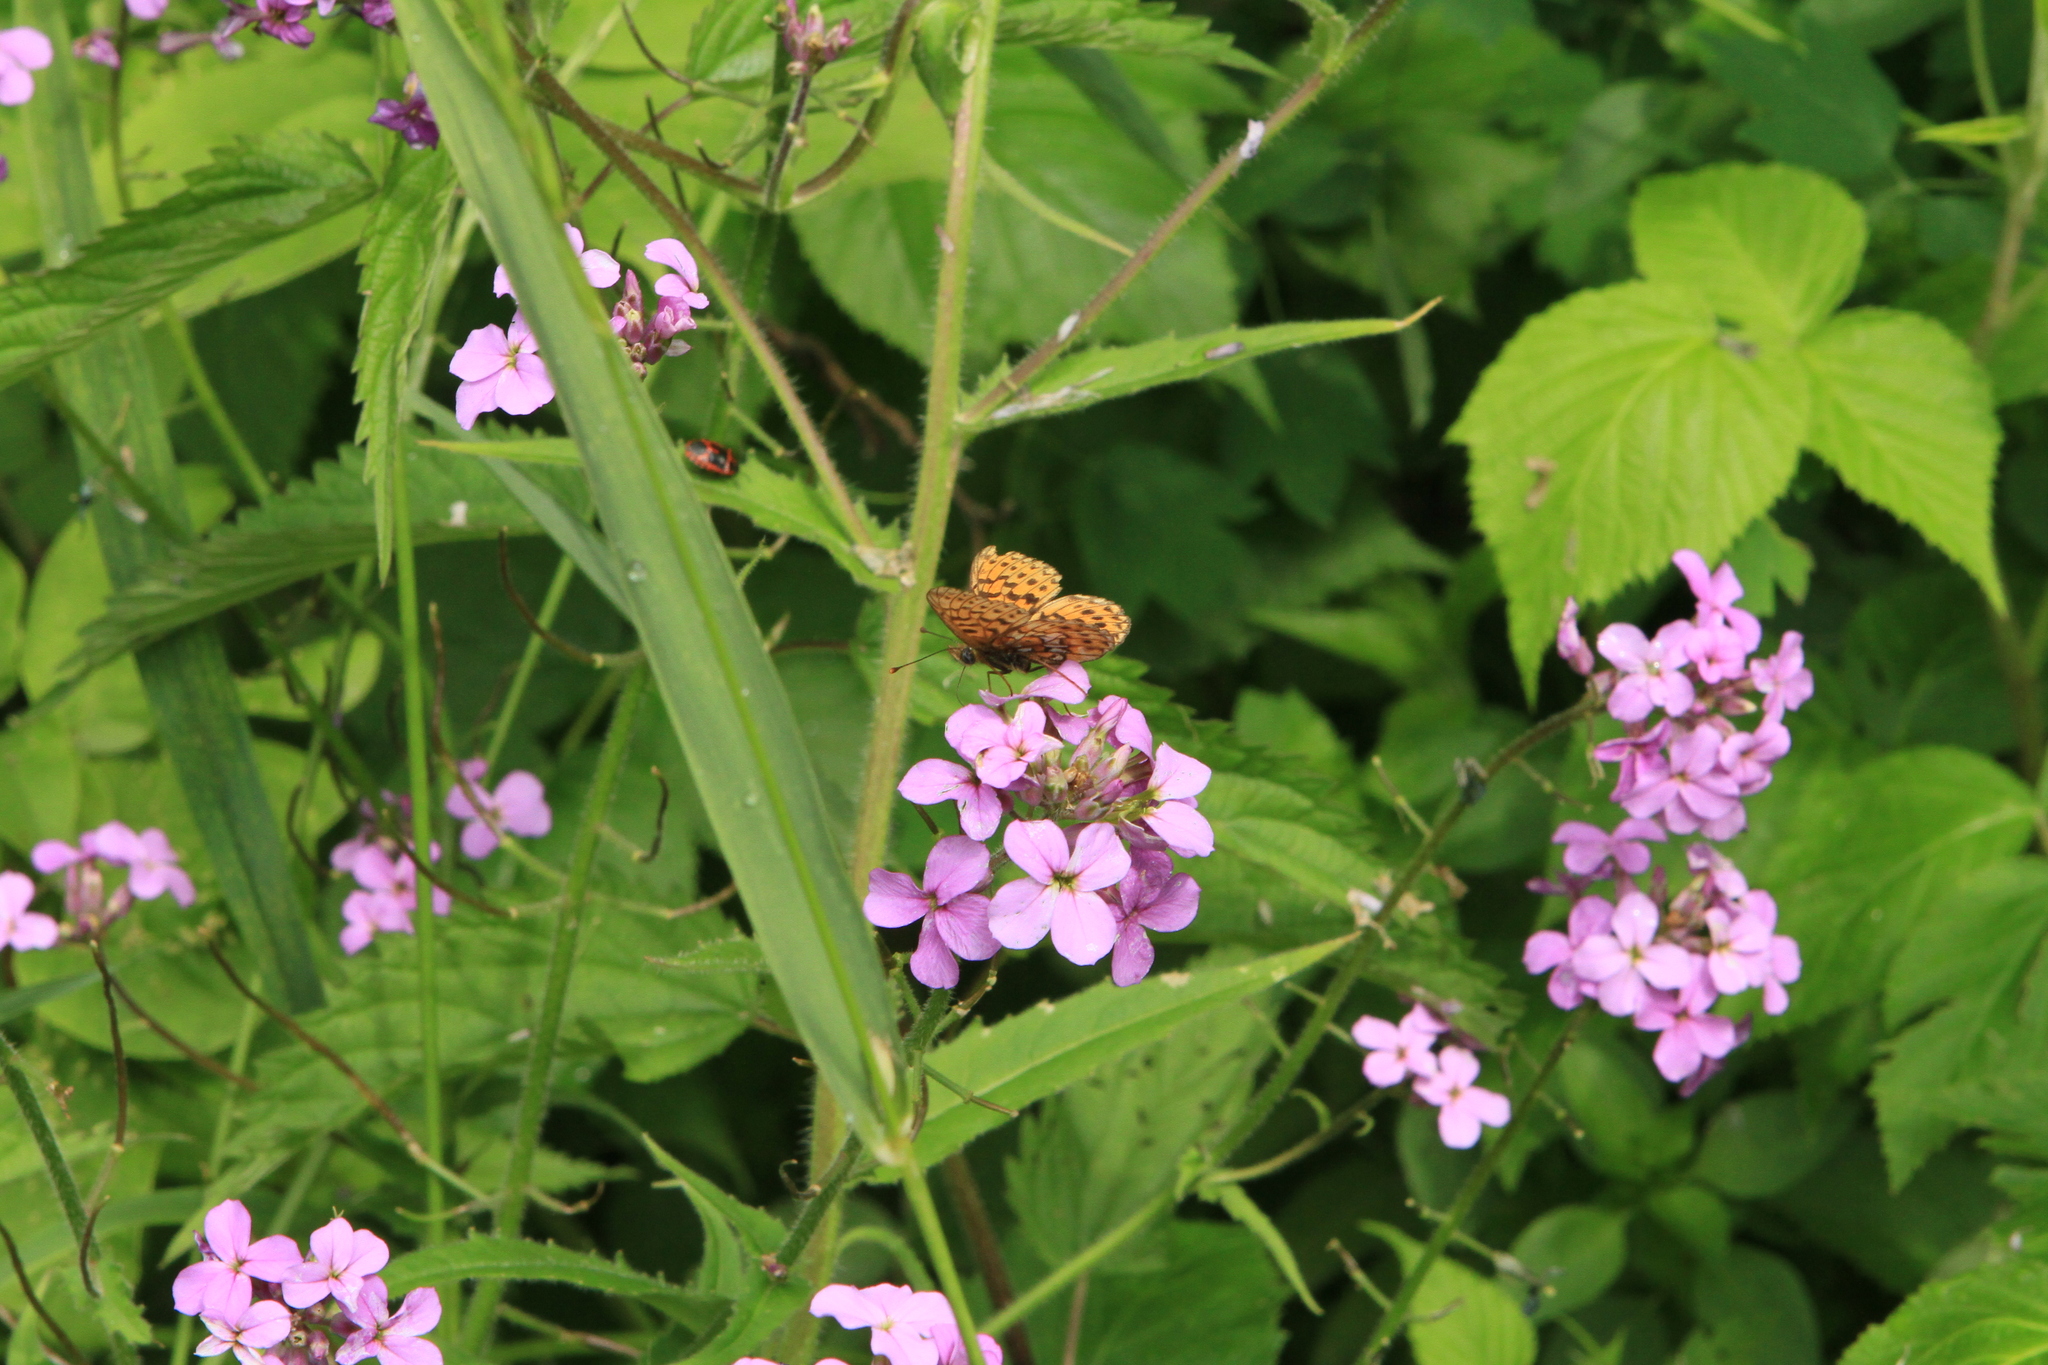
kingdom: Animalia
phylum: Arthropoda
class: Insecta
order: Lepidoptera
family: Nymphalidae
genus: Clossiana
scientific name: Clossiana euphrosyne
